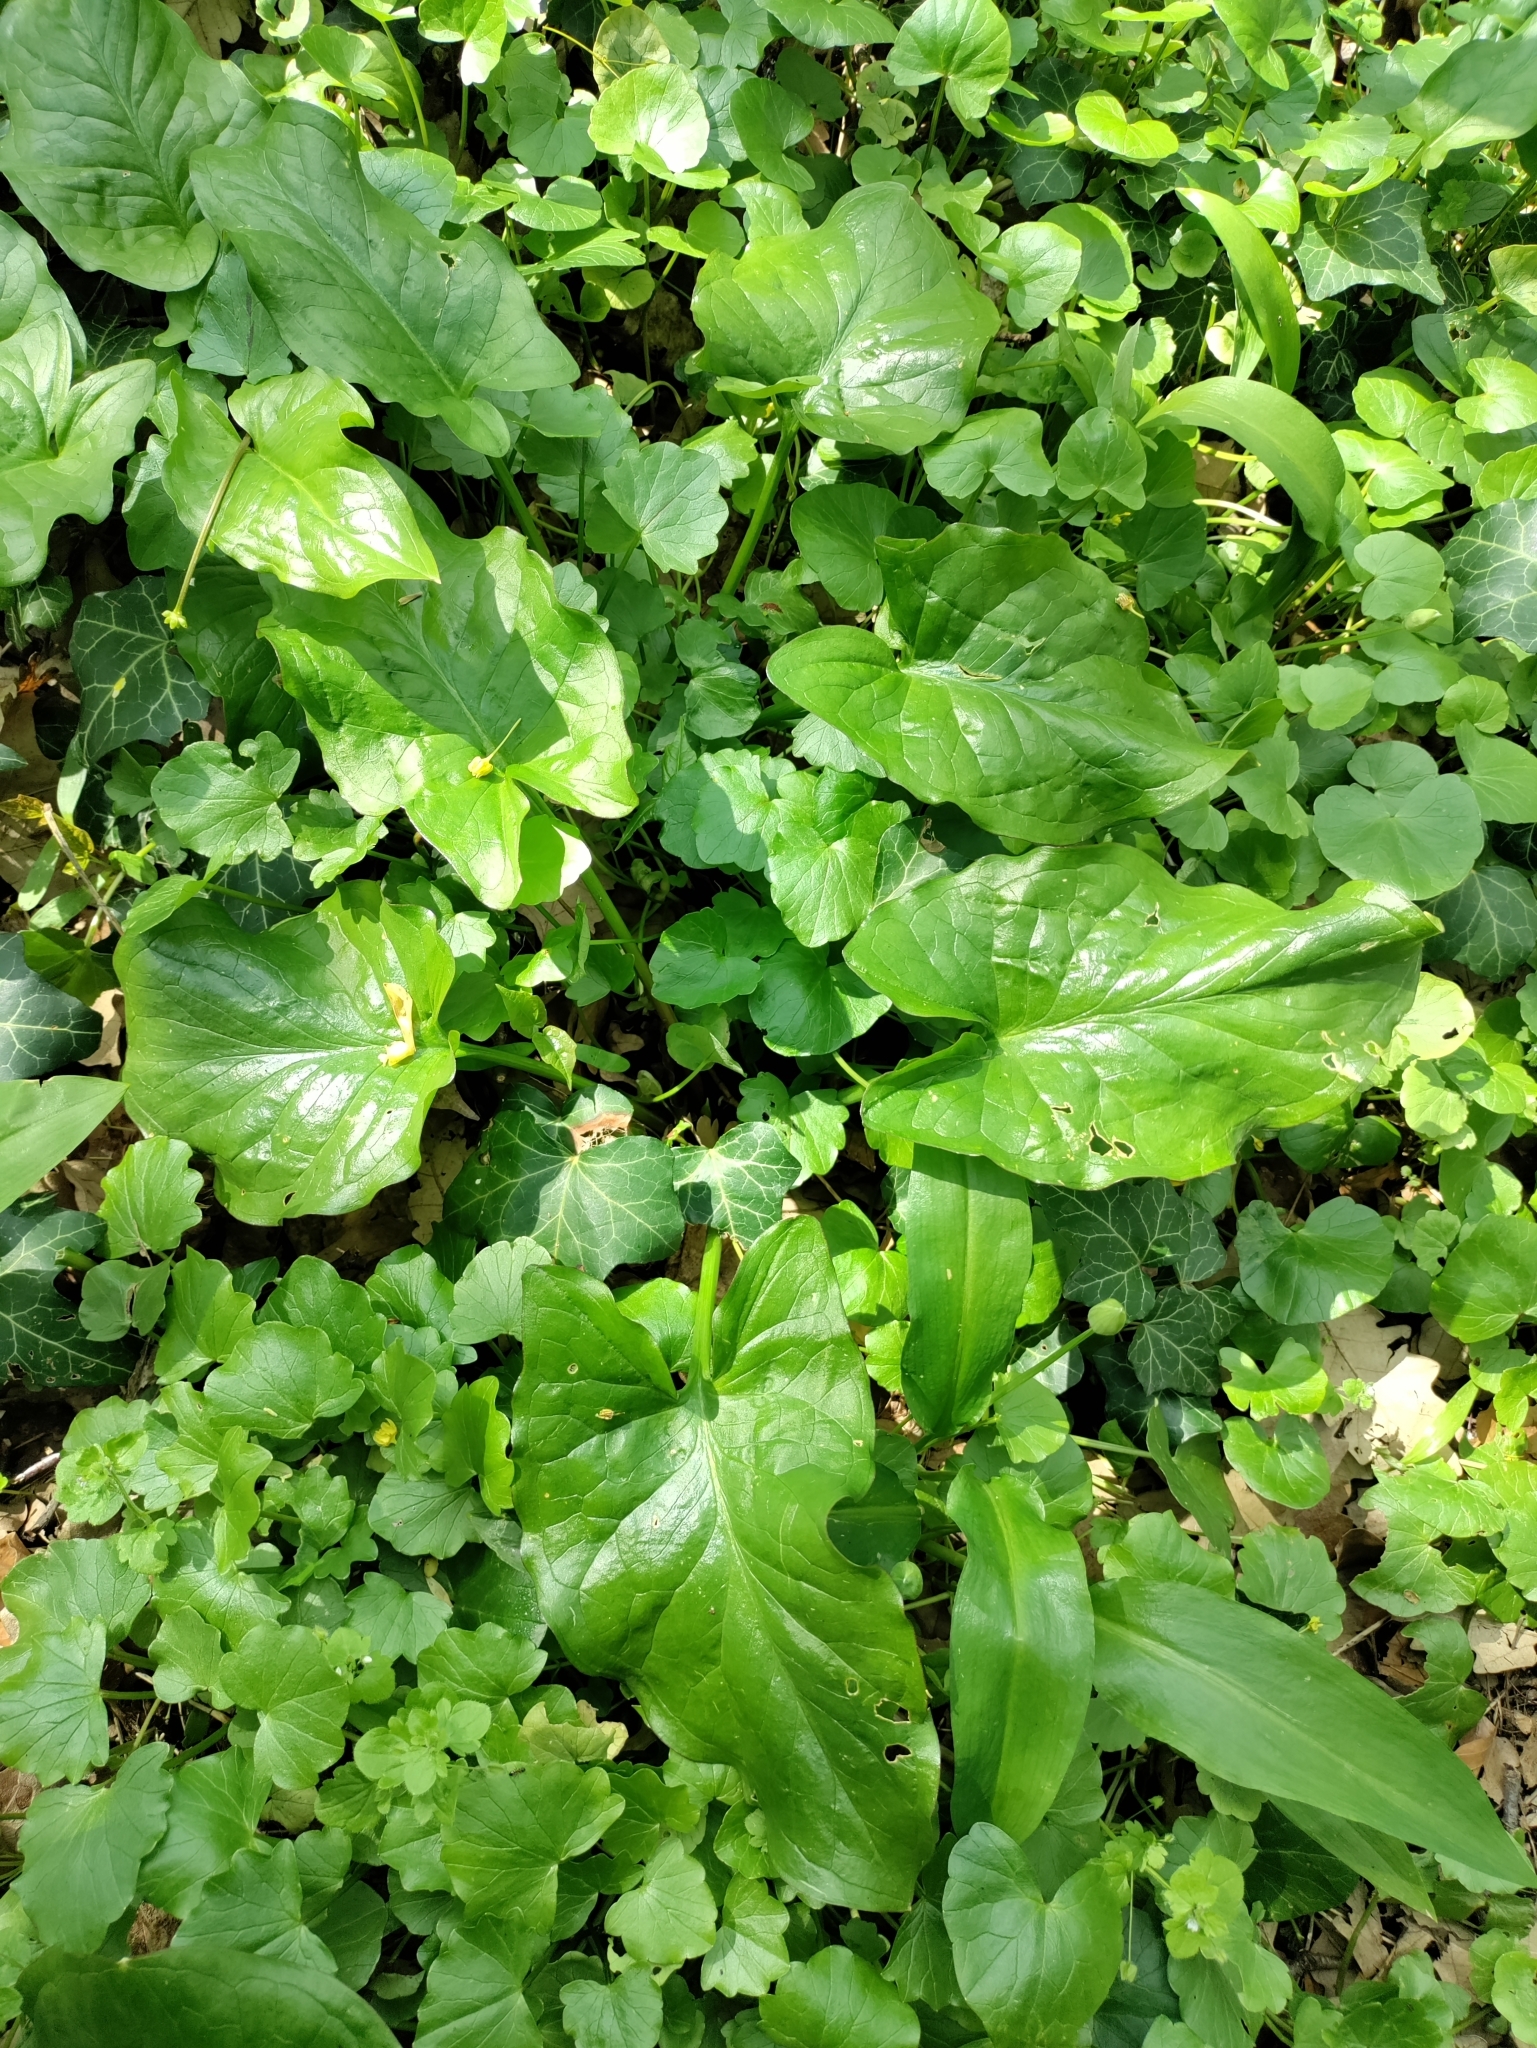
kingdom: Plantae
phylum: Tracheophyta
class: Liliopsida
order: Alismatales
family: Araceae
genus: Arum
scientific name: Arum cylindraceum
